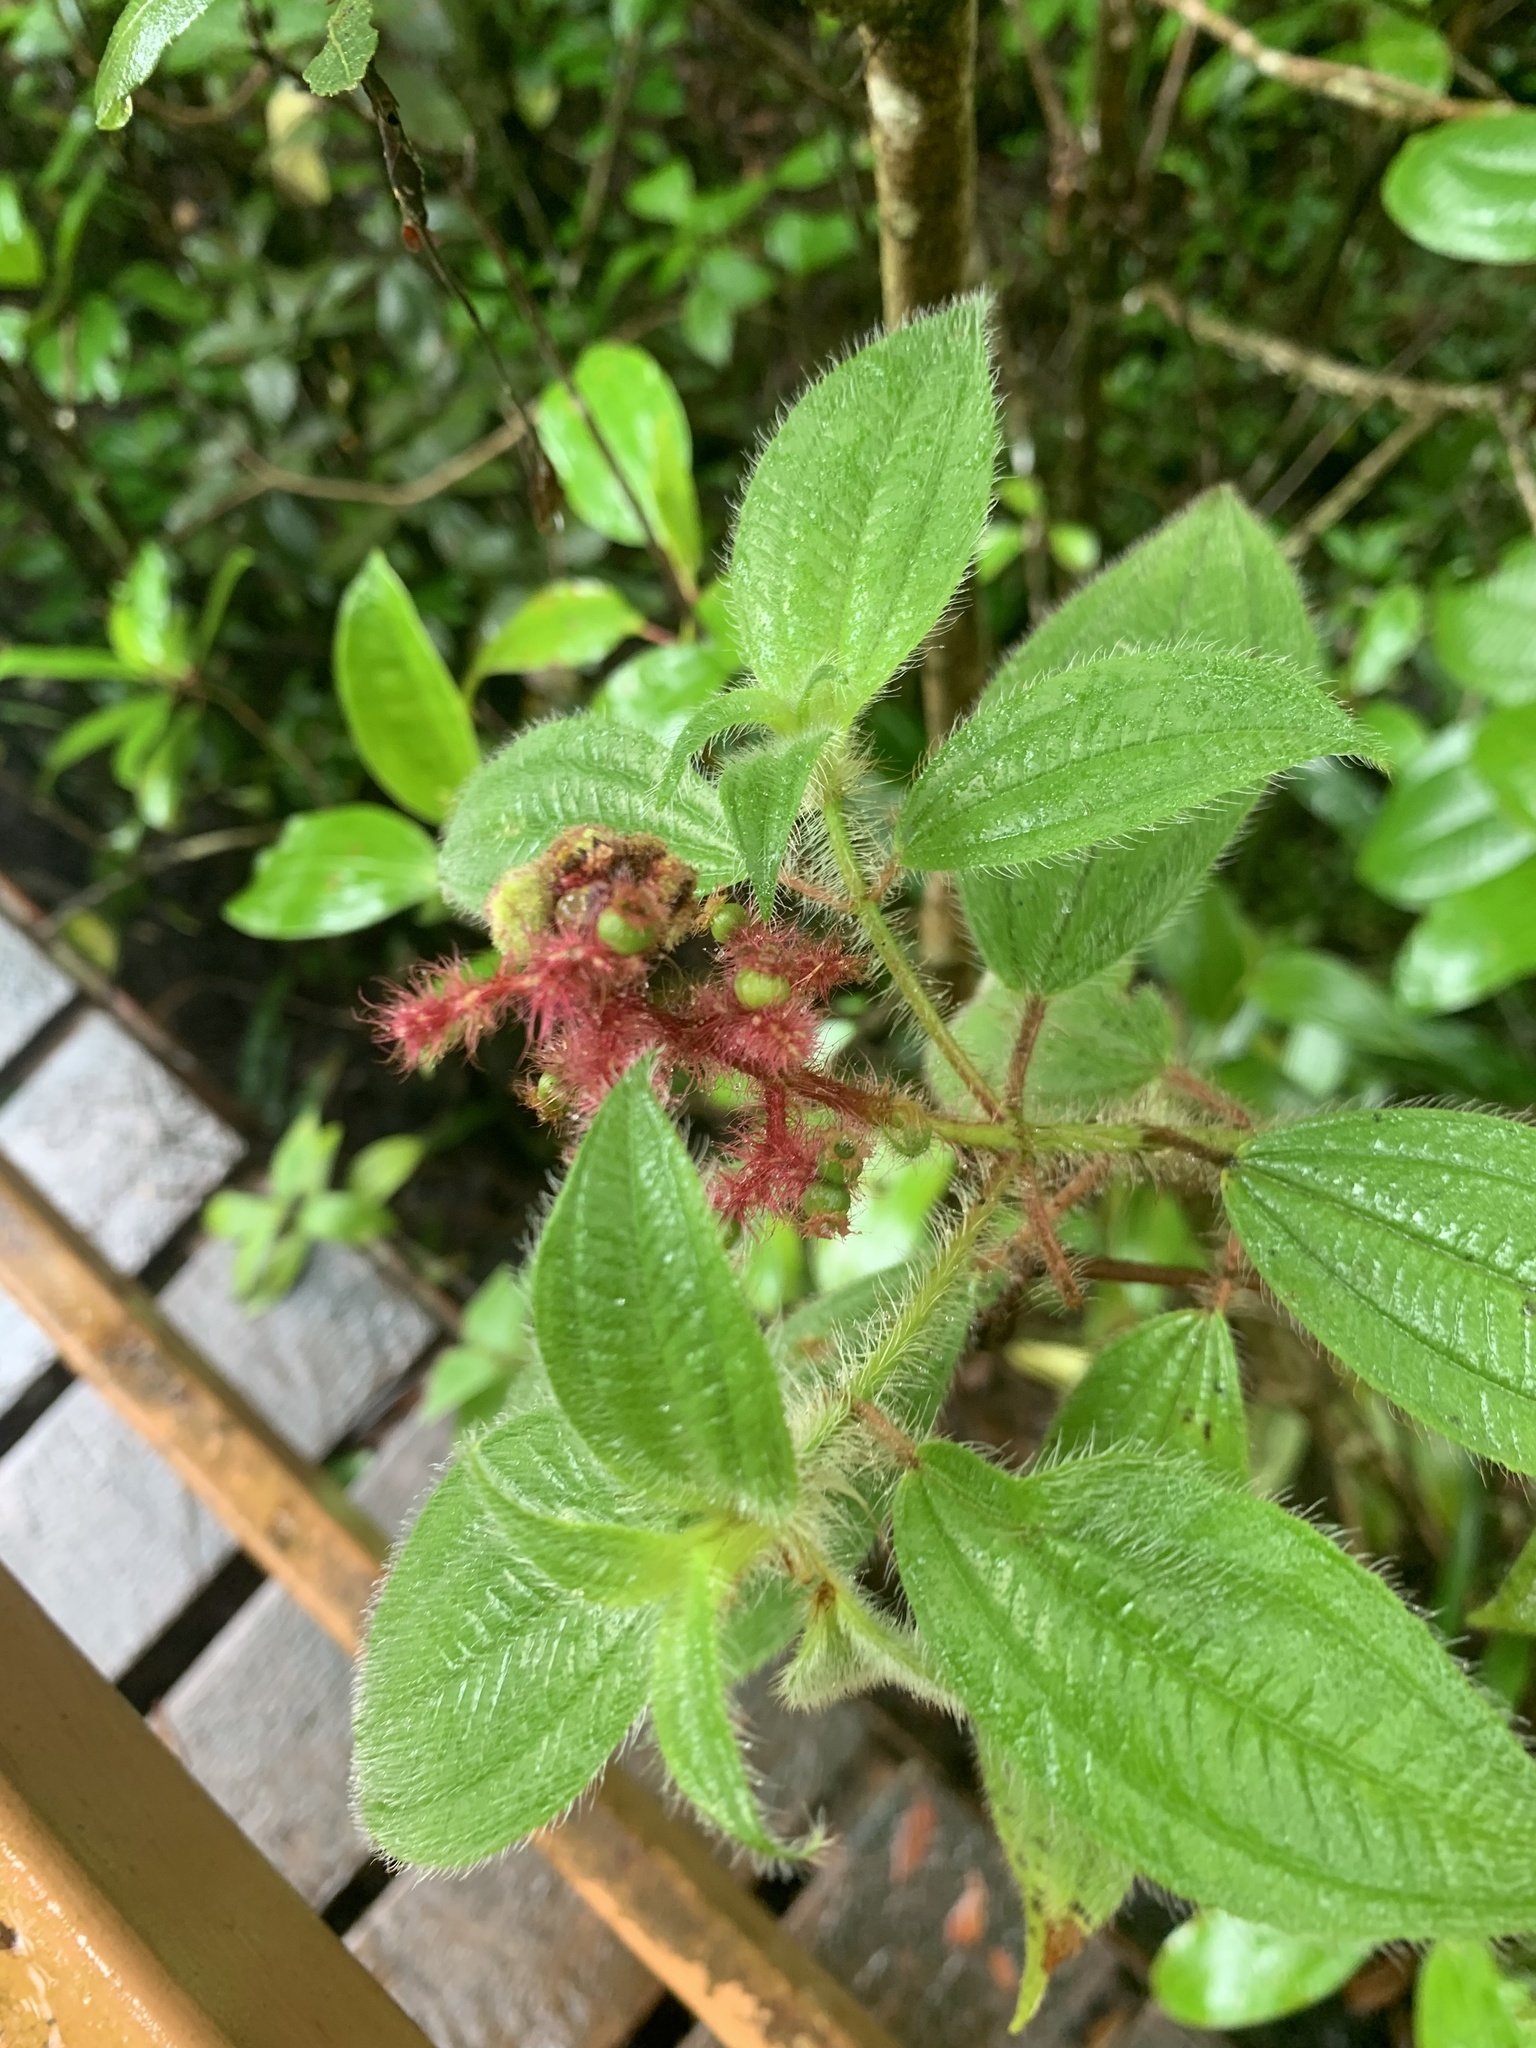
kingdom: Plantae
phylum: Tracheophyta
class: Magnoliopsida
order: Myrtales
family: Melastomataceae
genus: Miconia
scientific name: Miconia lacera
